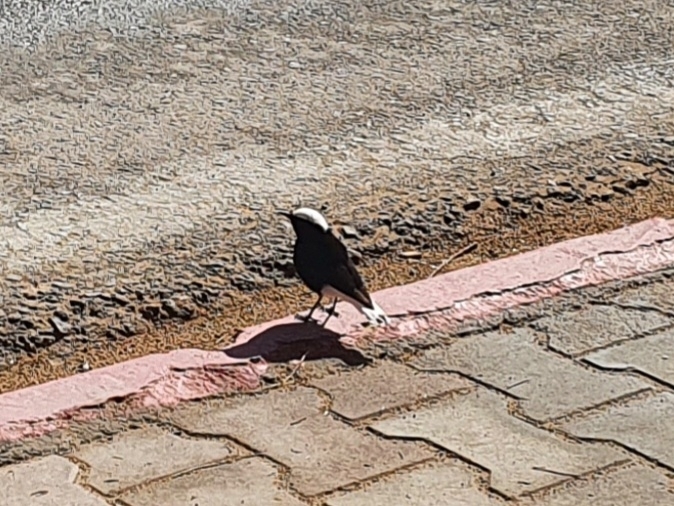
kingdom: Animalia
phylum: Chordata
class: Aves
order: Passeriformes
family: Muscicapidae
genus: Oenanthe
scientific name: Oenanthe leucopyga
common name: White-crowned wheatear
